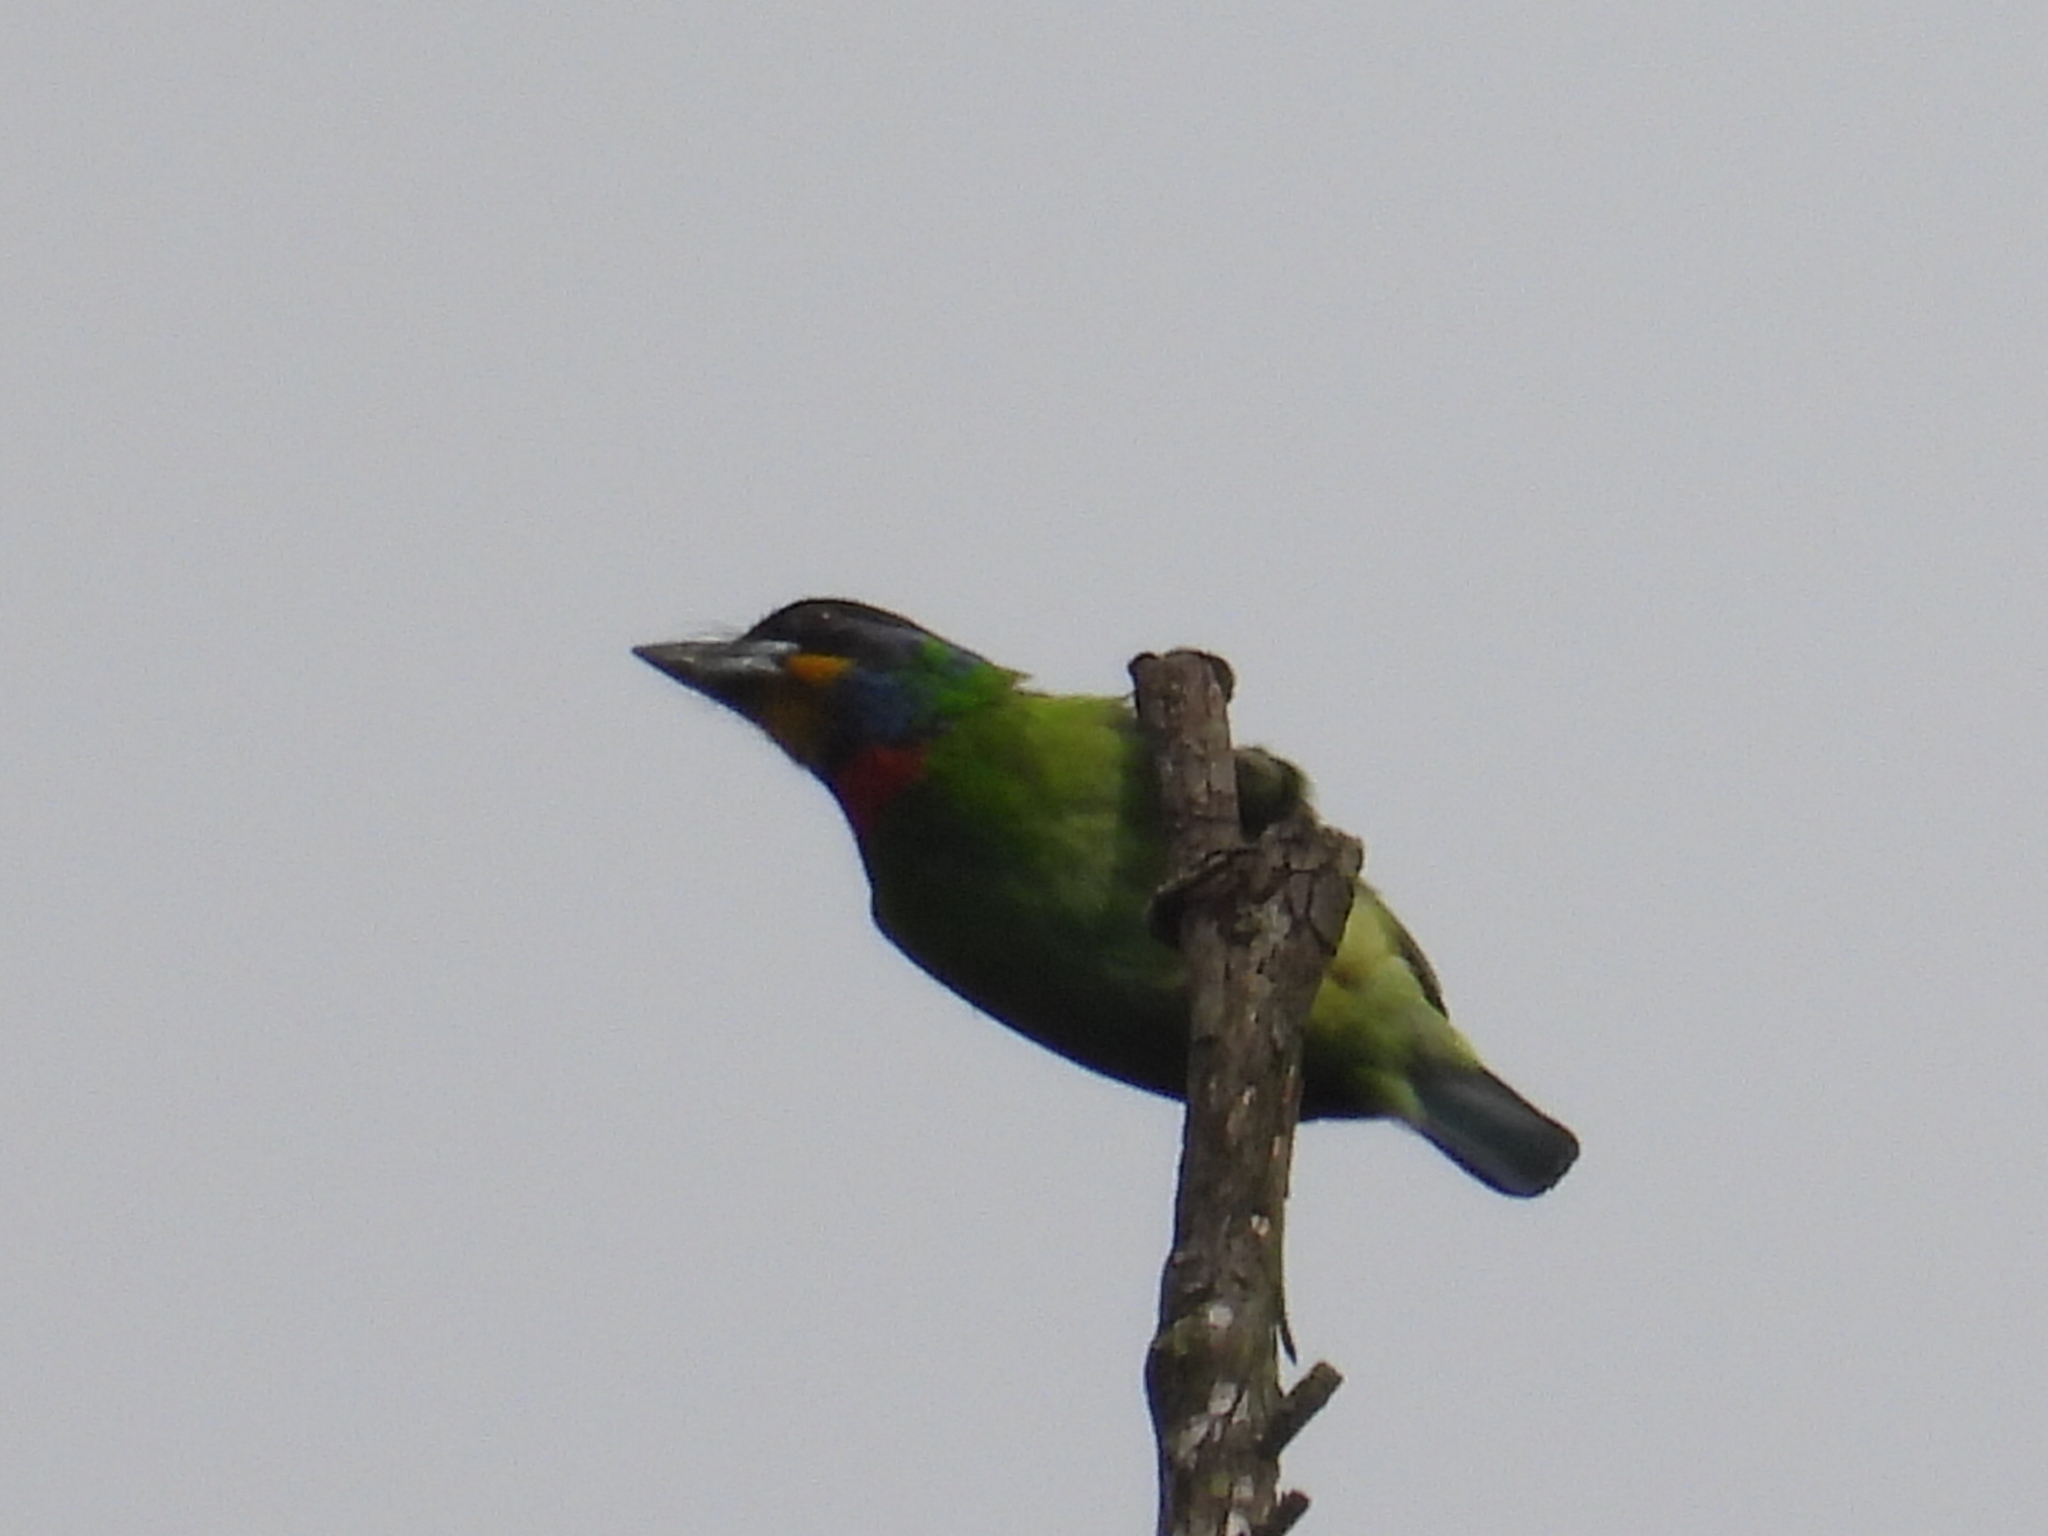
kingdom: Animalia
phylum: Chordata
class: Aves
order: Piciformes
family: Megalaimidae
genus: Psilopogon
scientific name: Psilopogon faber
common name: Chinese barbet
